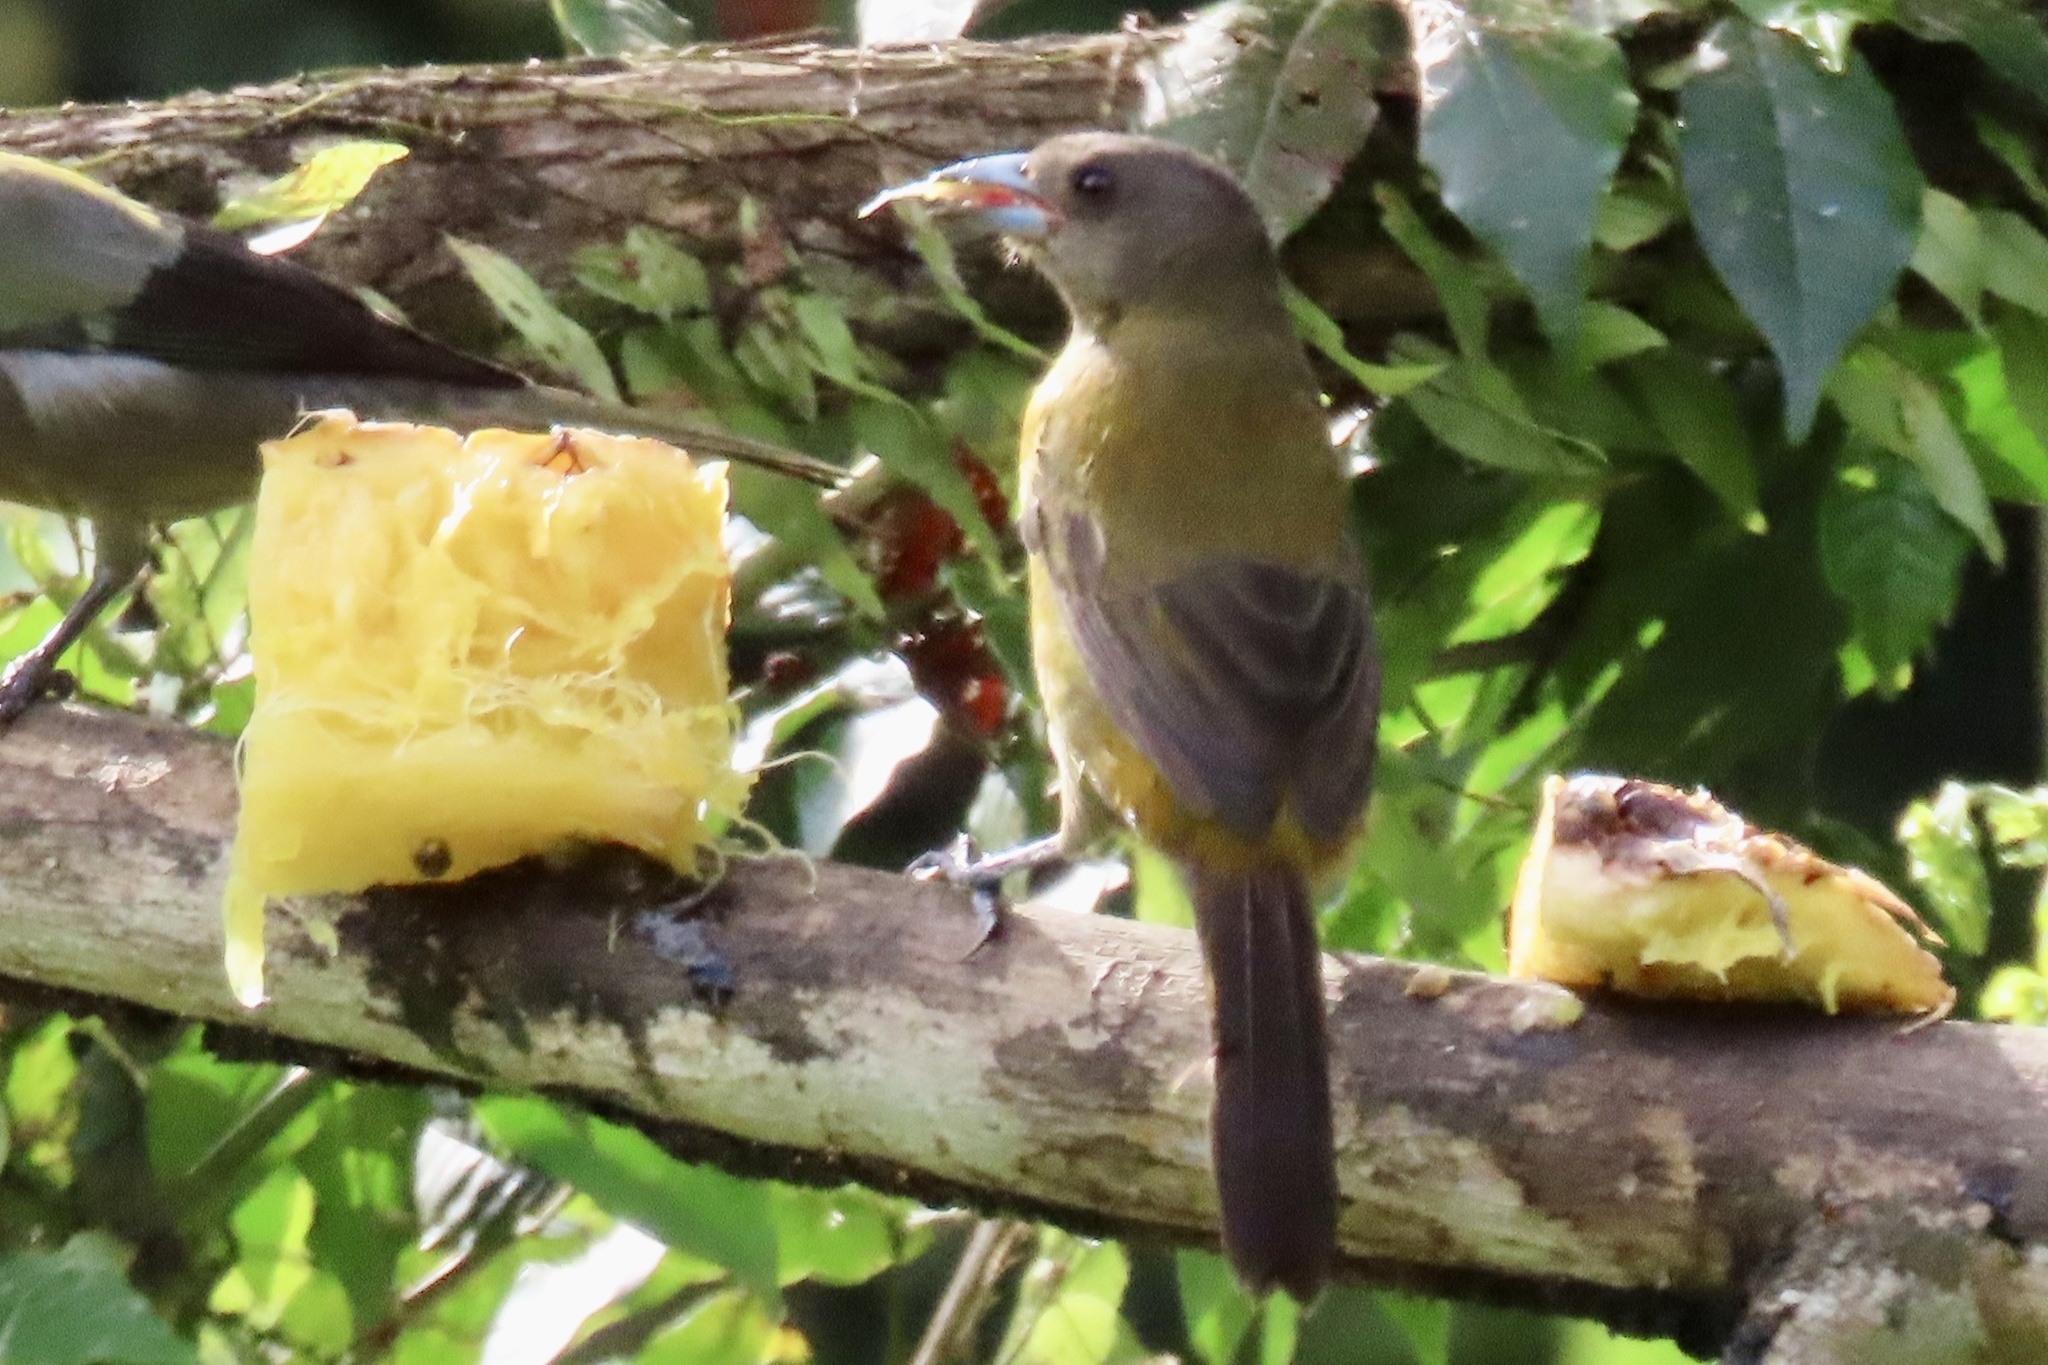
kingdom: Animalia
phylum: Chordata
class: Aves
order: Passeriformes
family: Thraupidae
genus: Ramphocelus
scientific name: Ramphocelus passerinii
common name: Passerini's tanager
